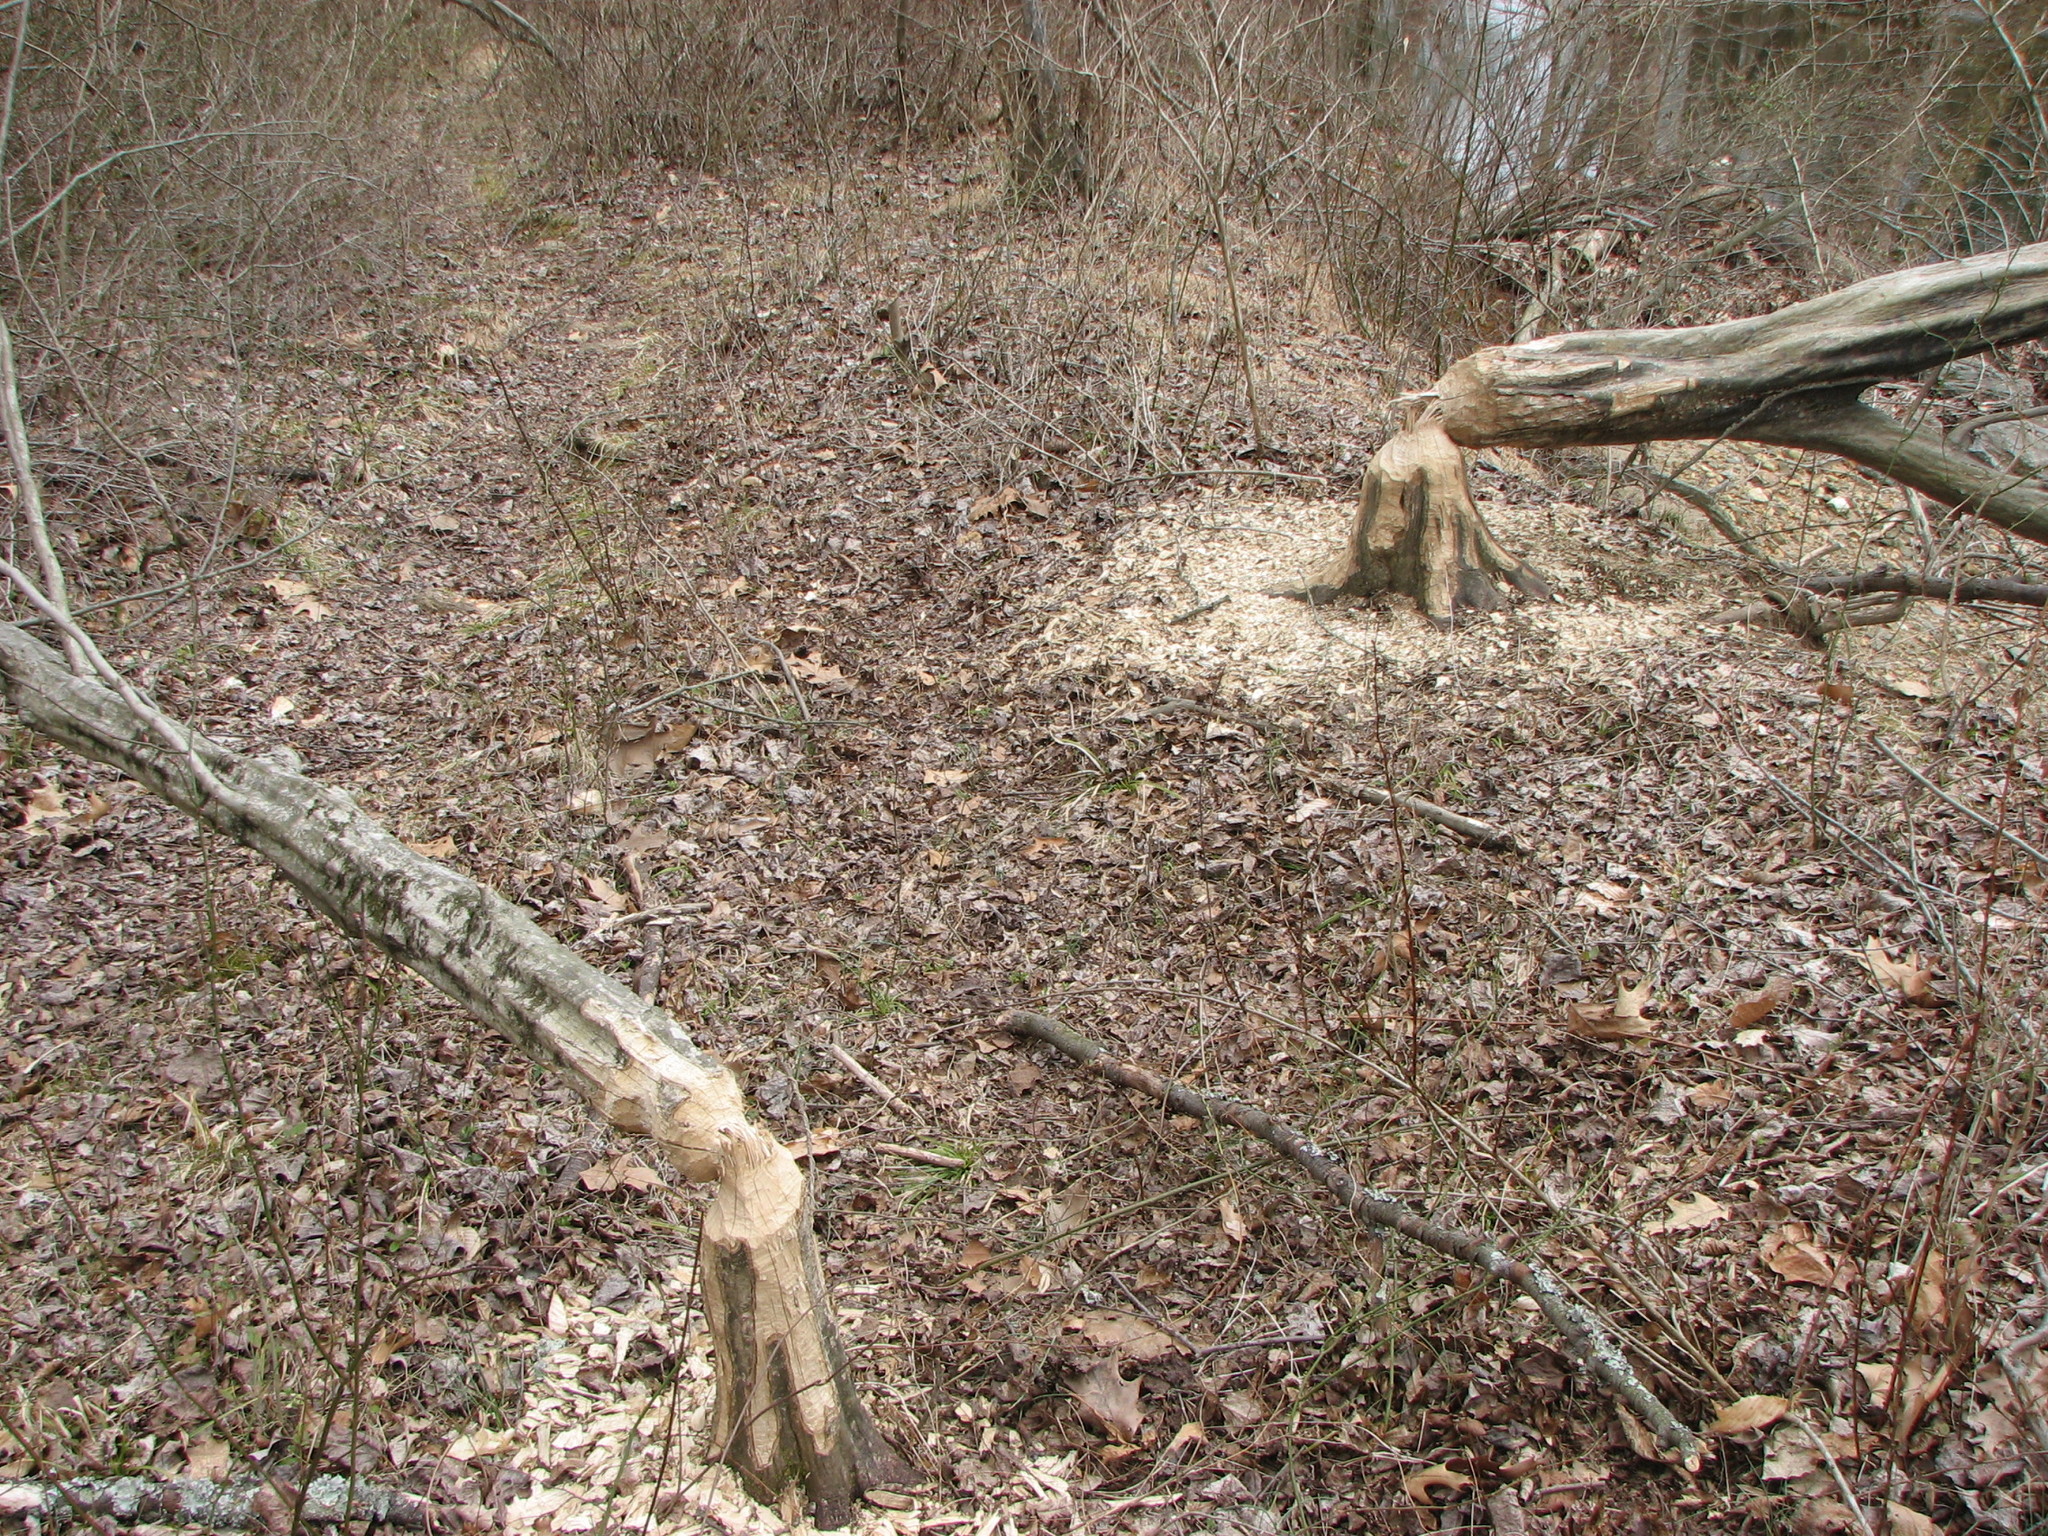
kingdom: Plantae
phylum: Tracheophyta
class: Magnoliopsida
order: Fagales
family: Betulaceae
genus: Carpinus
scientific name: Carpinus caroliniana
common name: American hornbeam
